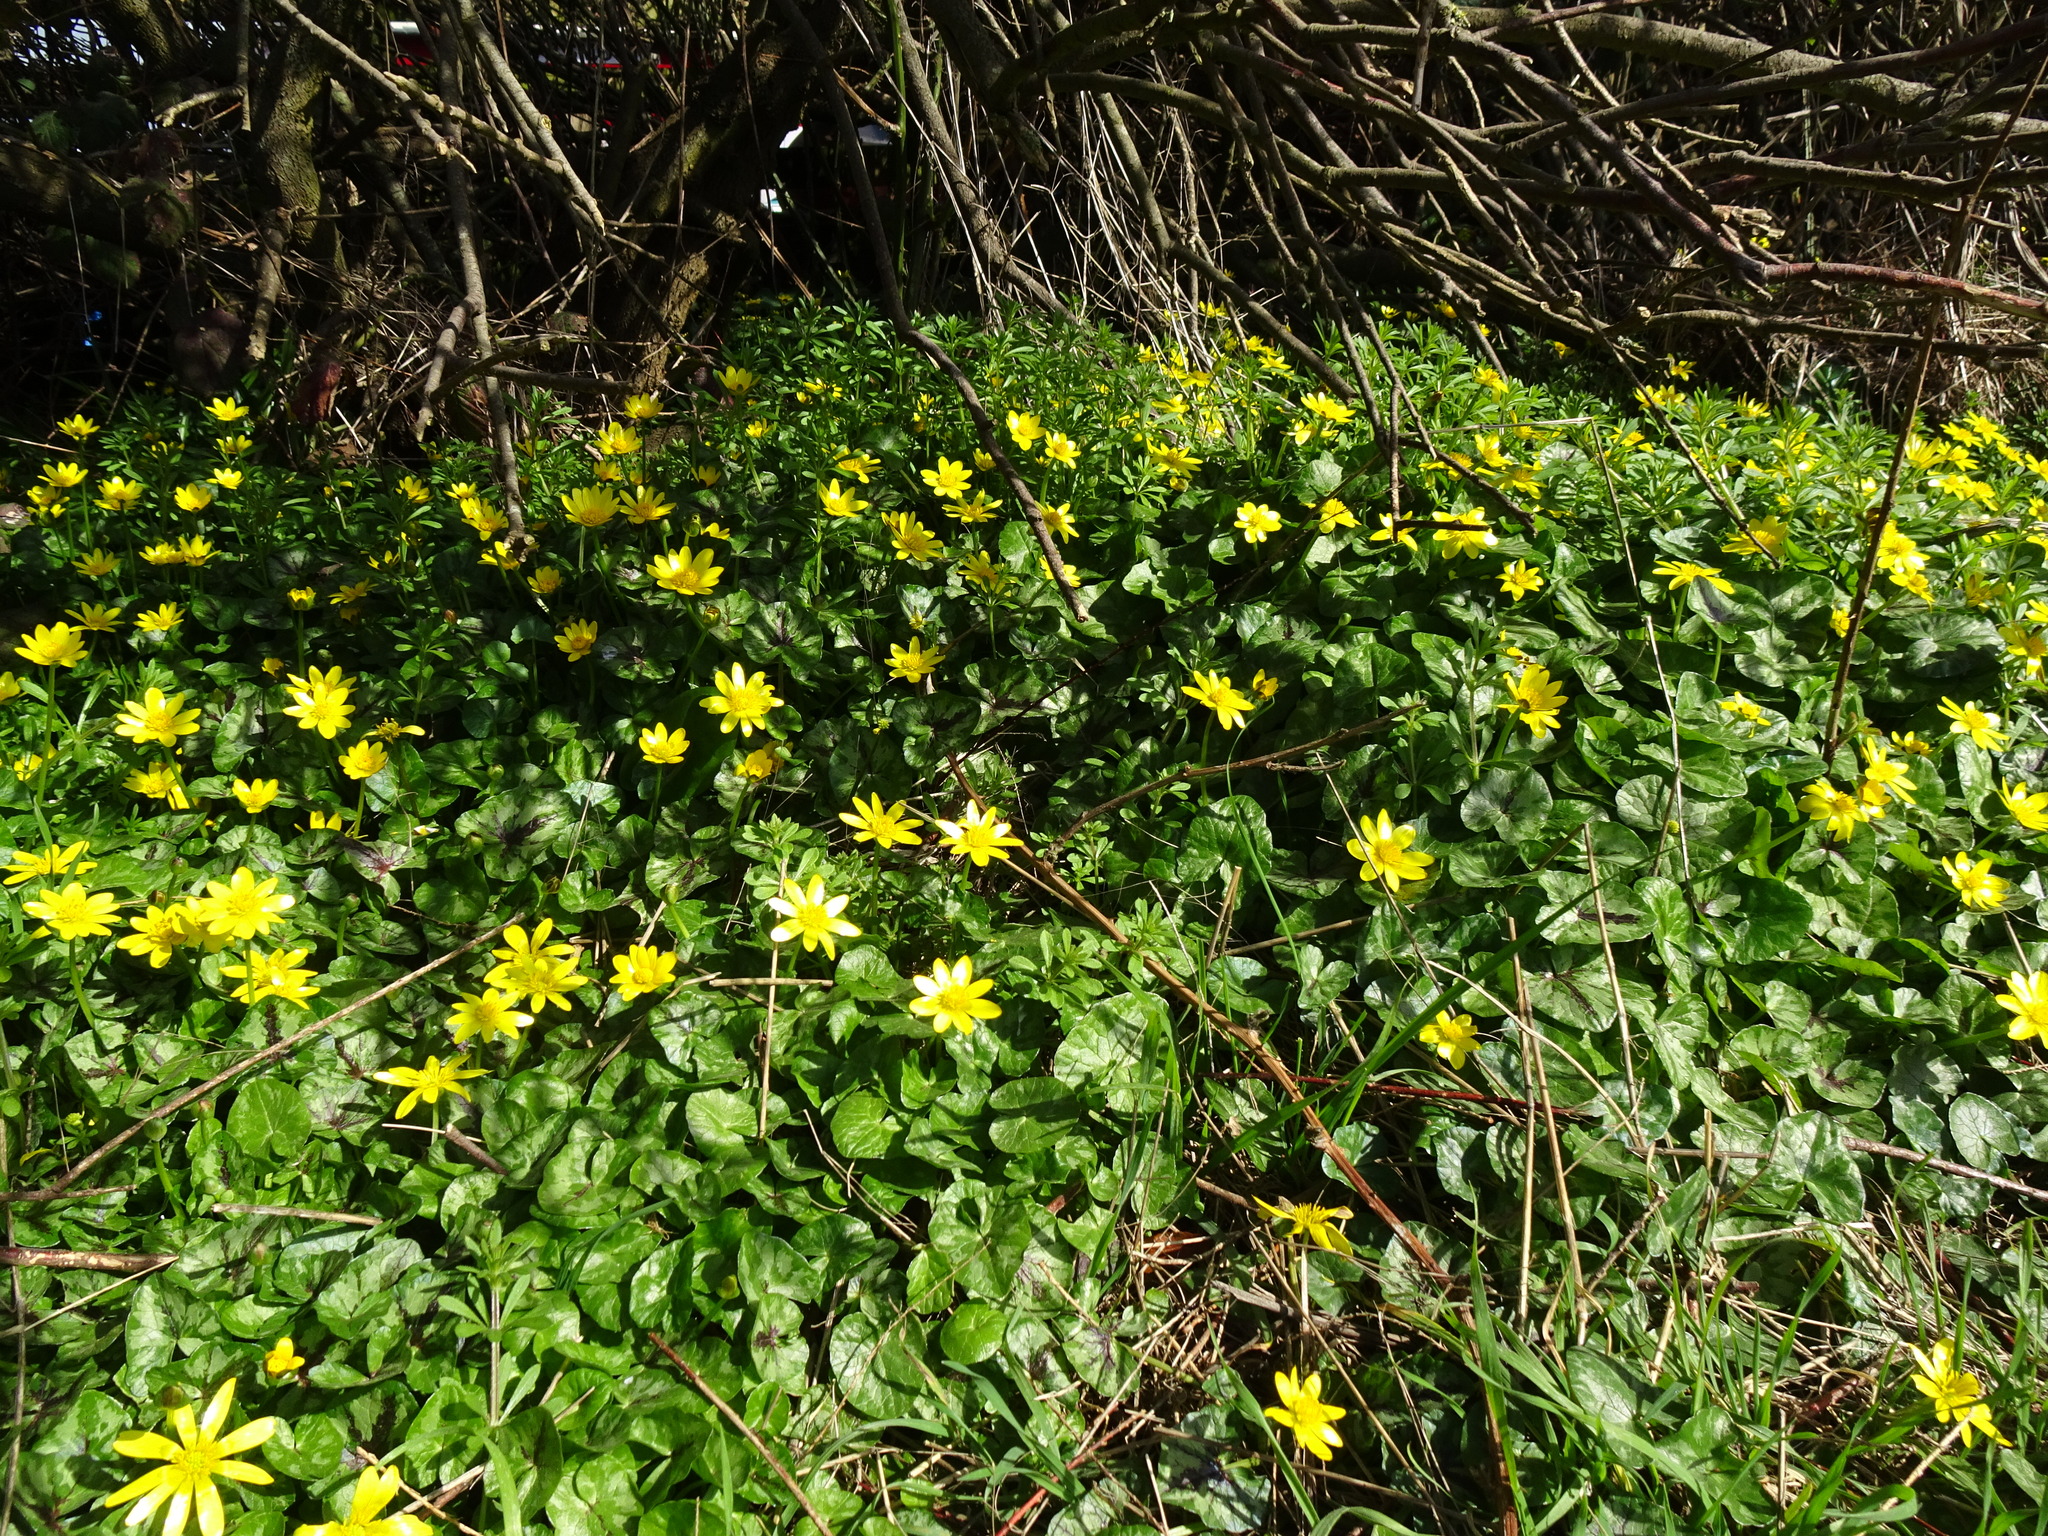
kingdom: Plantae
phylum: Tracheophyta
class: Magnoliopsida
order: Ranunculales
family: Ranunculaceae
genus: Ficaria
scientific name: Ficaria verna
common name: Lesser celandine
